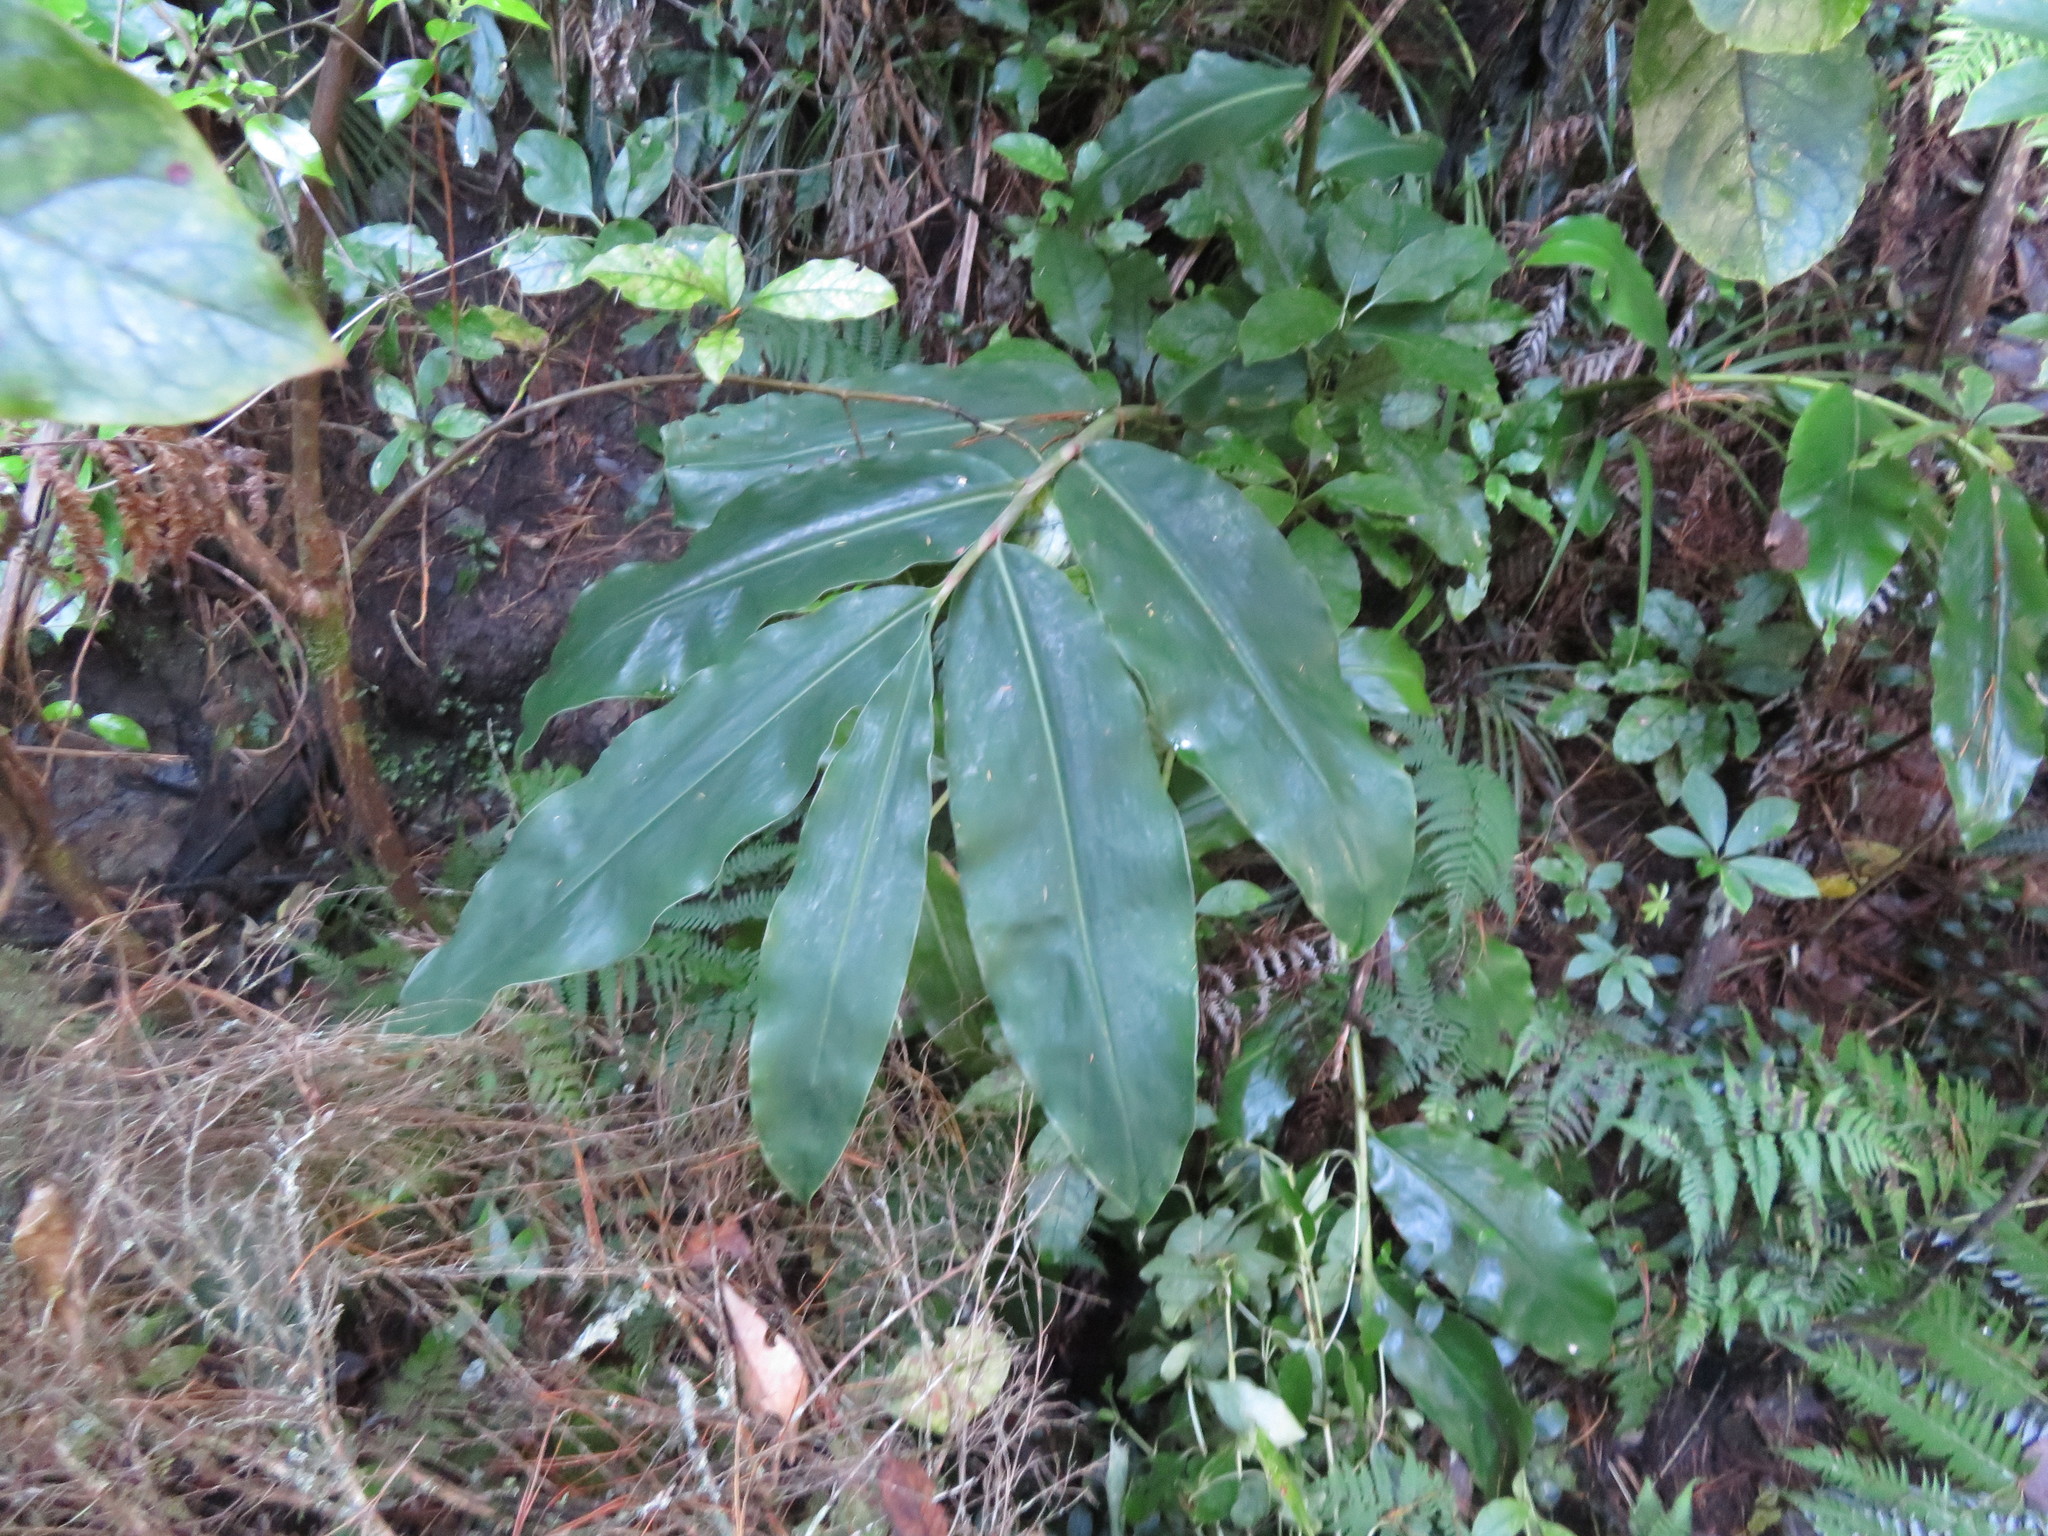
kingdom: Plantae
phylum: Tracheophyta
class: Liliopsida
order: Zingiberales
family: Zingiberaceae
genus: Hedychium
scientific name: Hedychium gardnerianum
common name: Himalayan ginger
